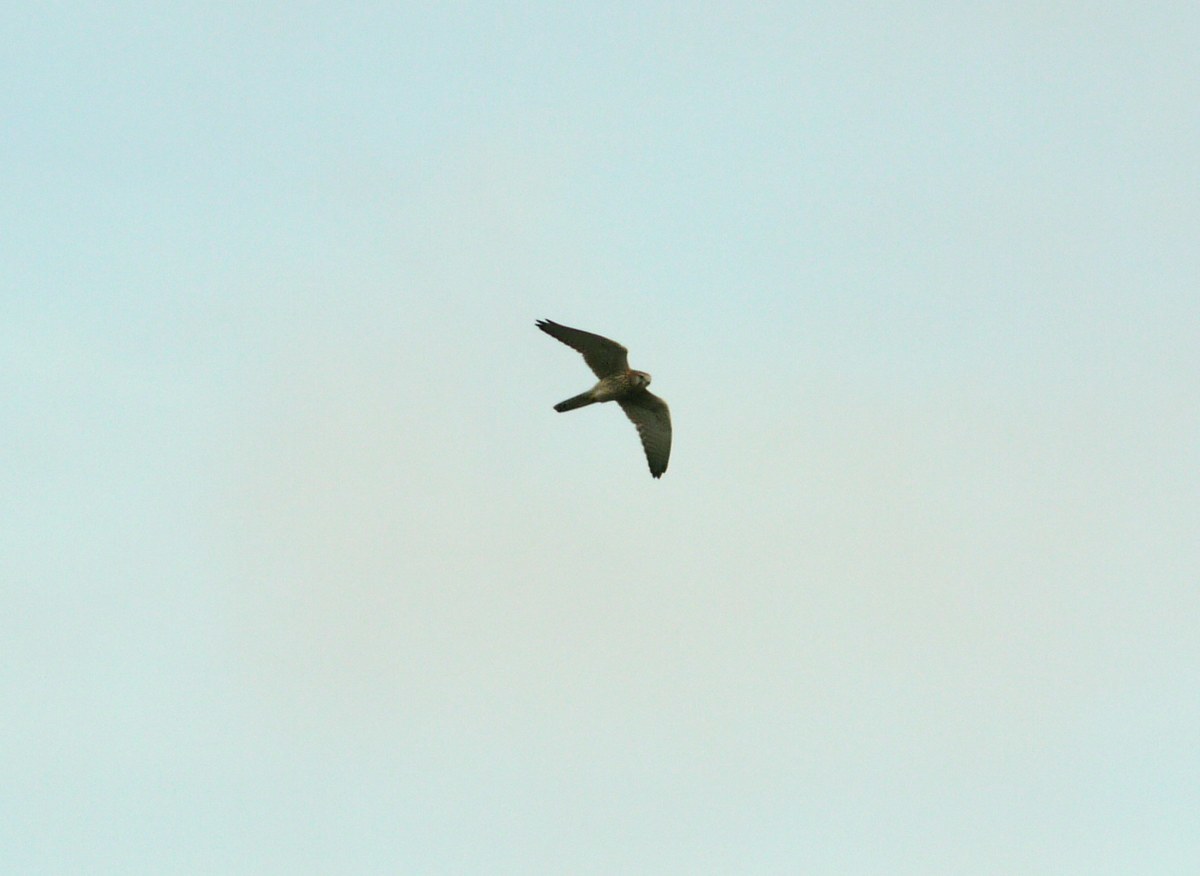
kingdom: Animalia
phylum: Chordata
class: Aves
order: Falconiformes
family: Falconidae
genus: Falco
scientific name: Falco tinnunculus
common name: Common kestrel
